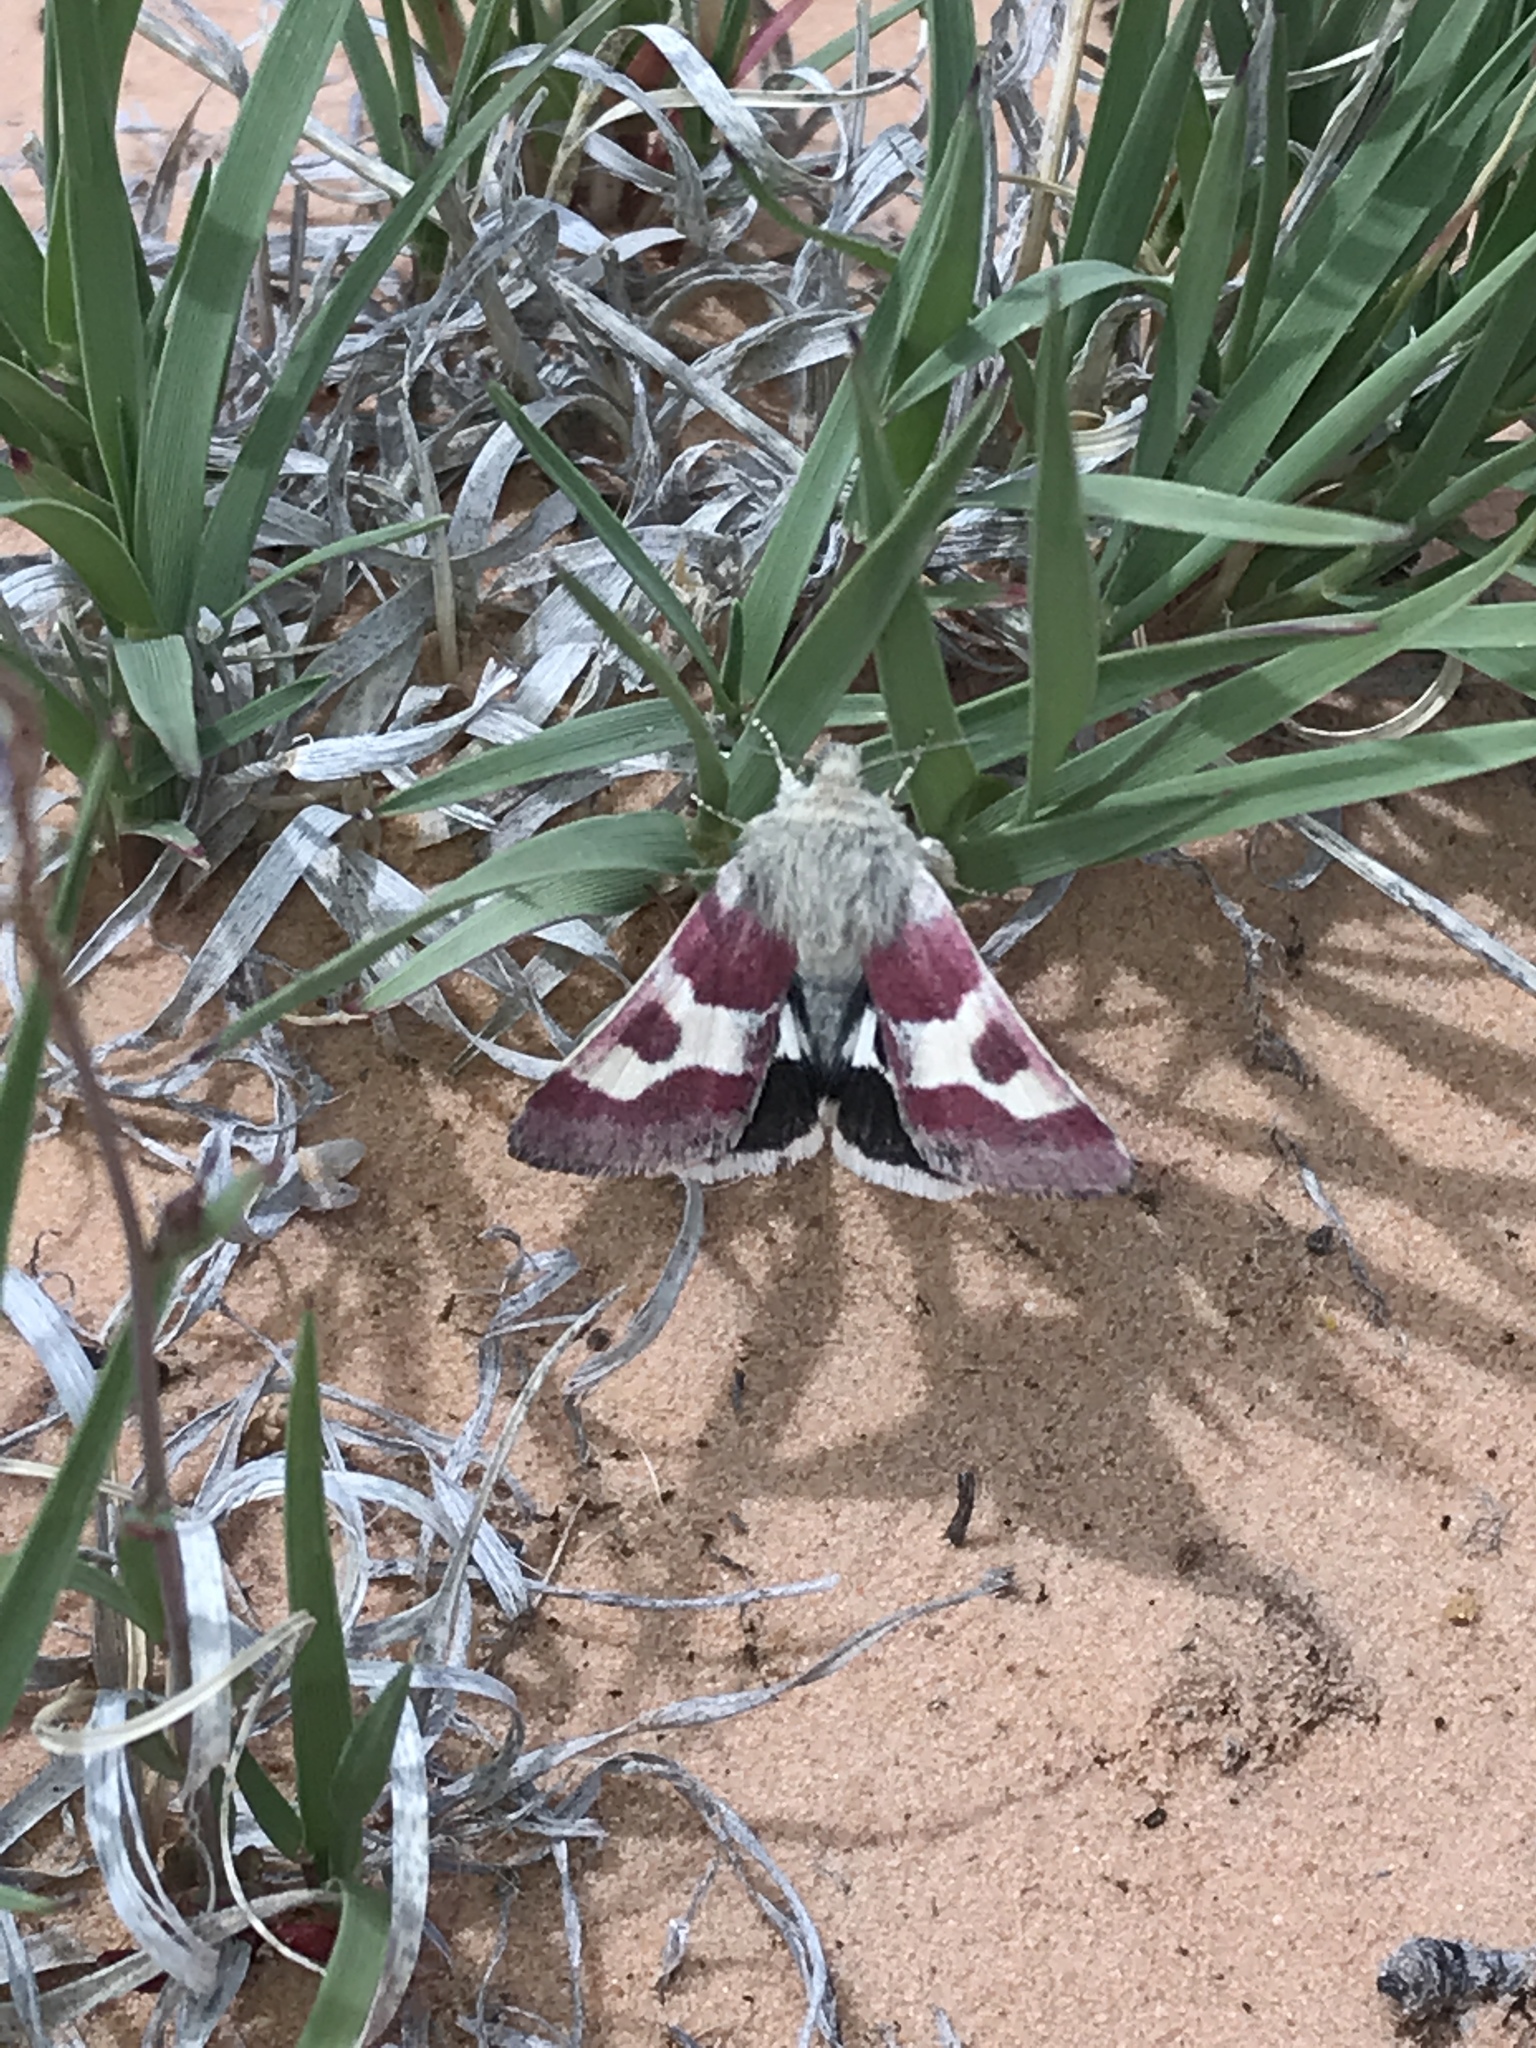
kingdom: Animalia
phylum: Arthropoda
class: Insecta
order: Lepidoptera
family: Noctuidae
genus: Schinia
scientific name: Schinia suetus
